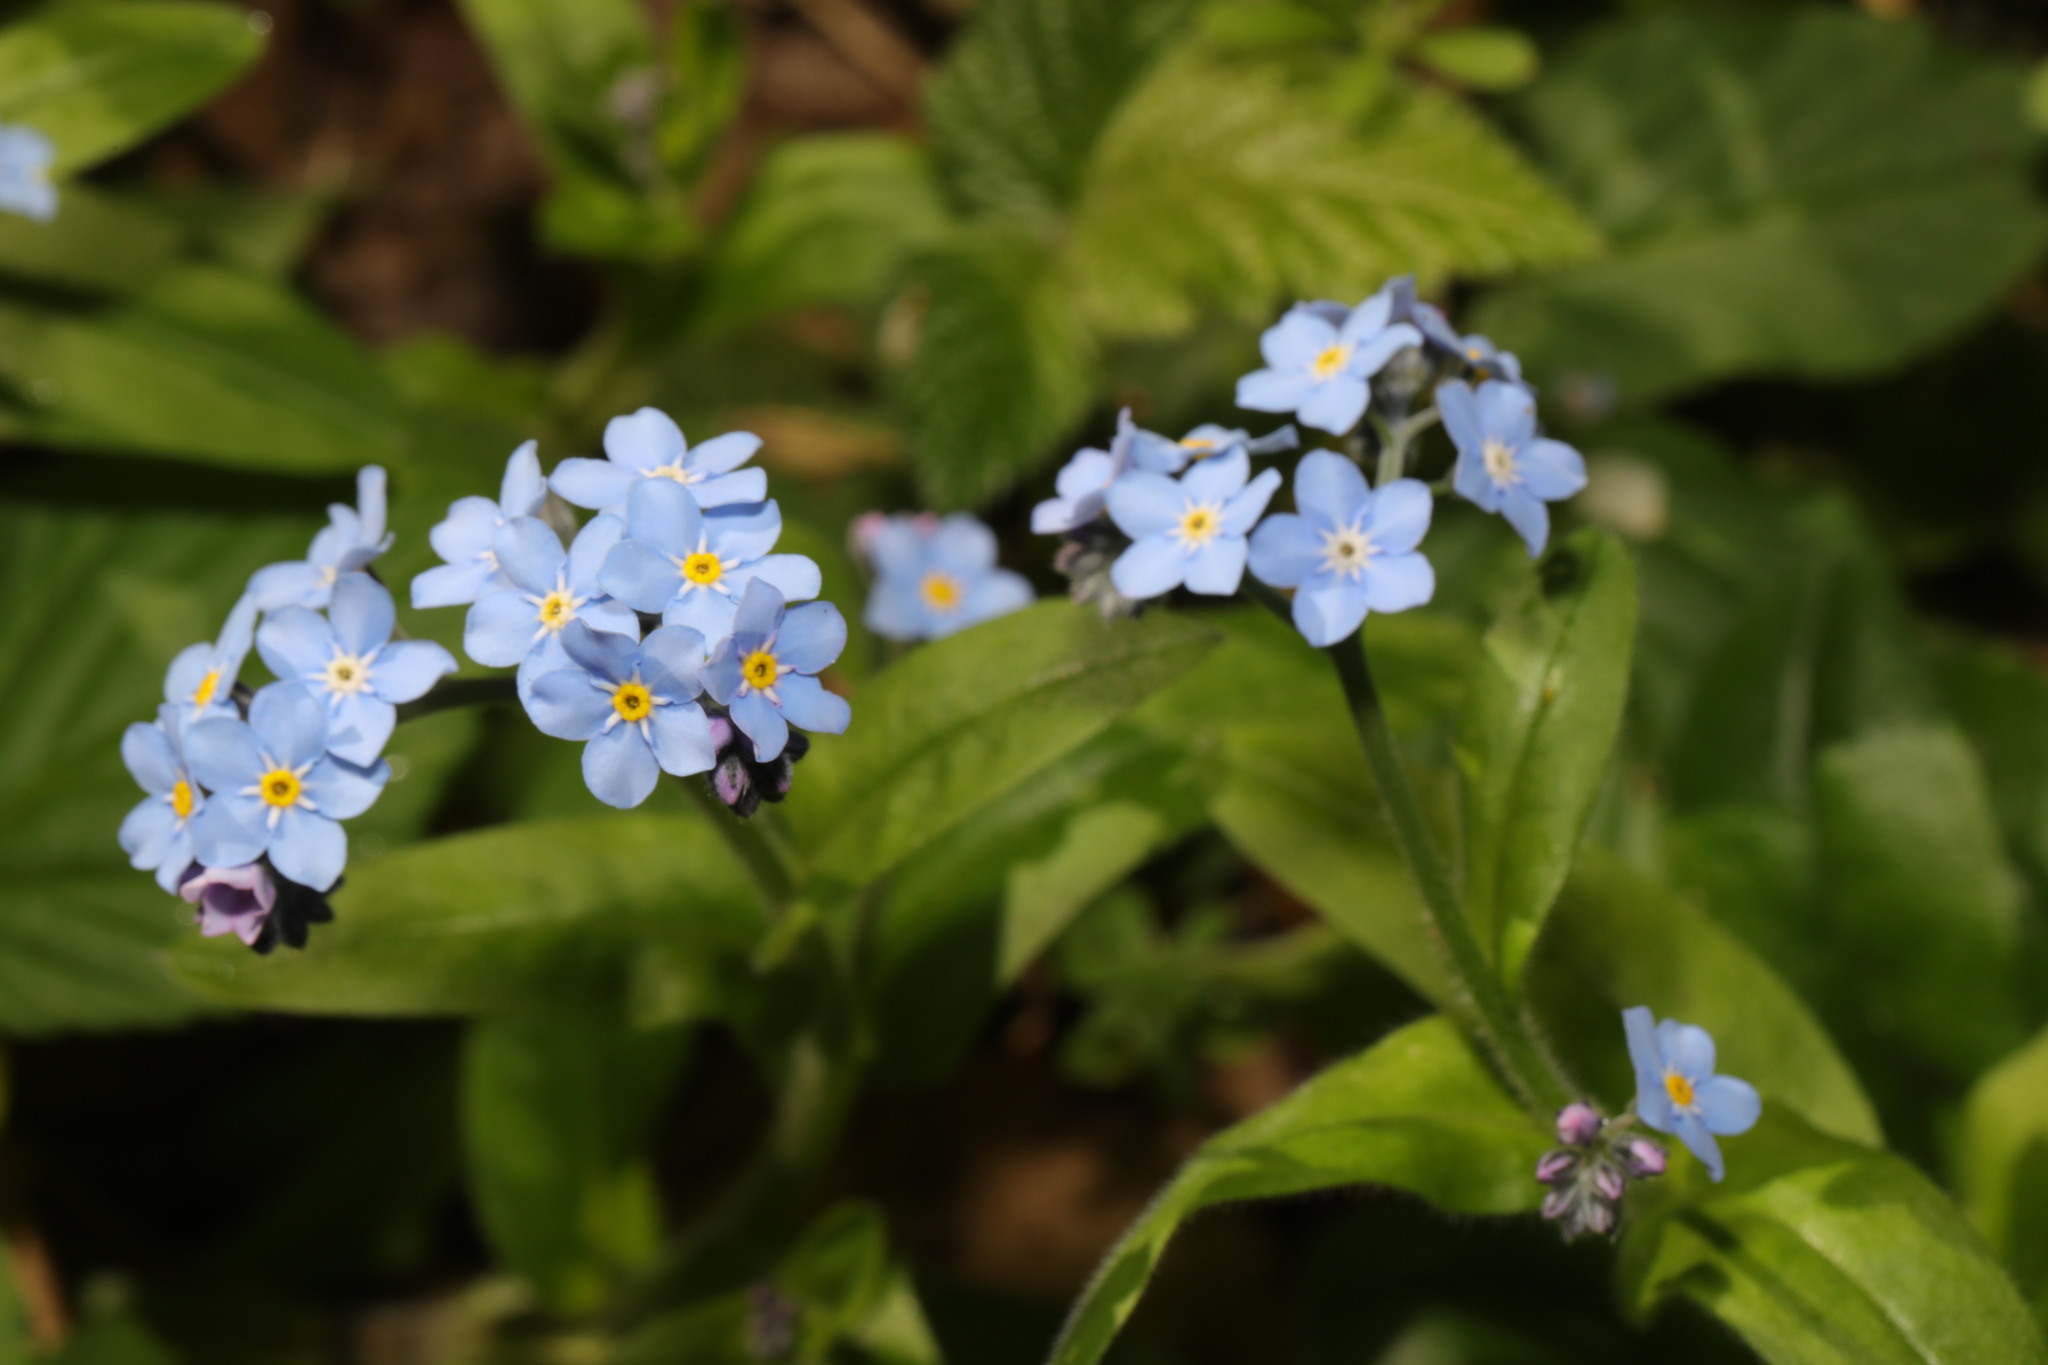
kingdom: Plantae
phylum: Tracheophyta
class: Magnoliopsida
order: Boraginales
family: Boraginaceae
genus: Myosotis
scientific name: Myosotis sylvatica
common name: Wood forget-me-not
